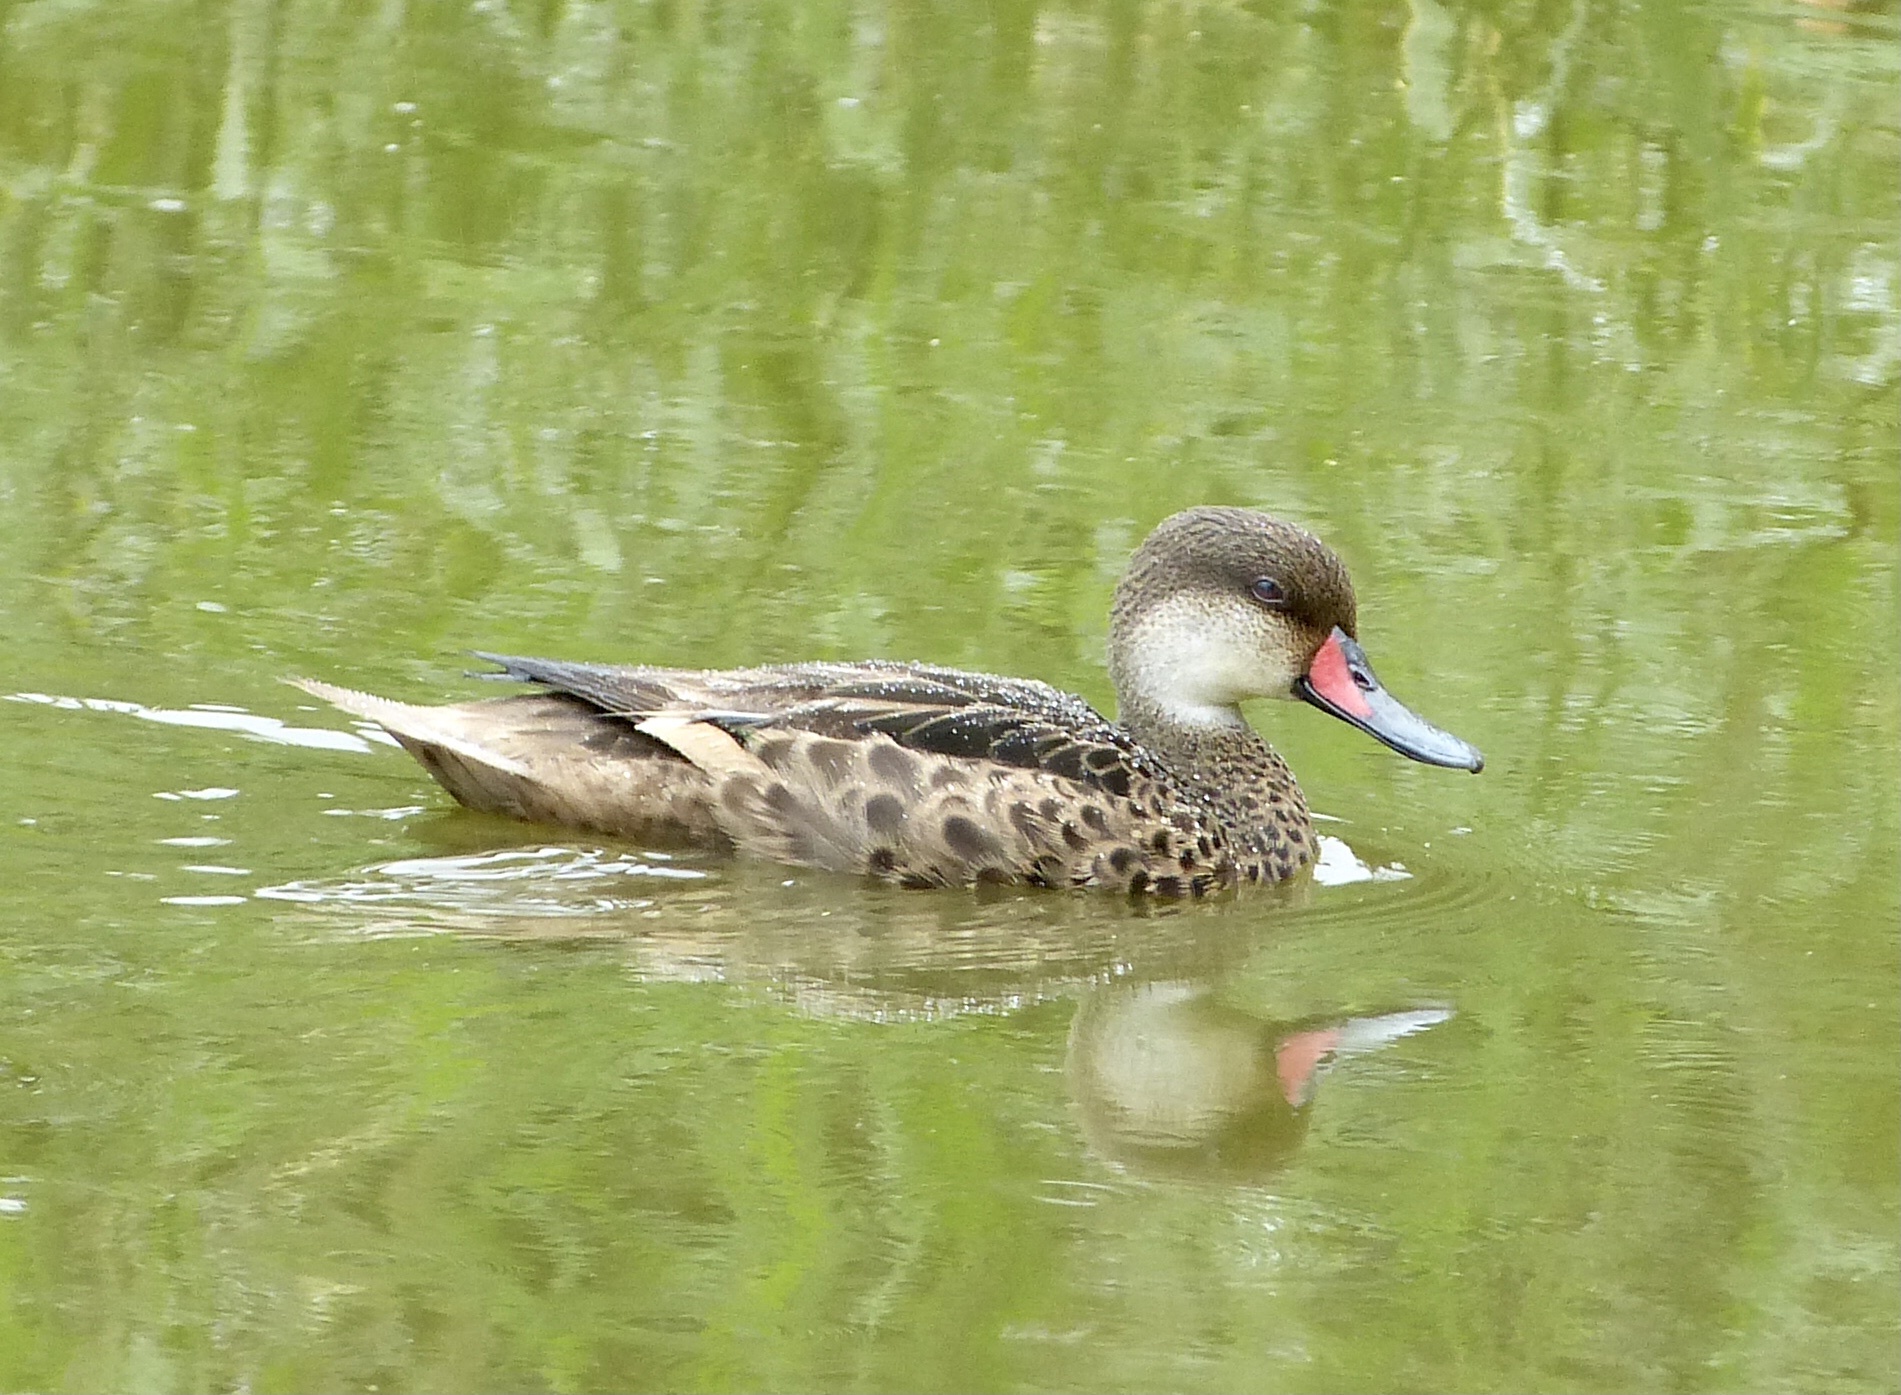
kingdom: Animalia
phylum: Chordata
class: Aves
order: Anseriformes
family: Anatidae
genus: Anas
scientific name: Anas bahamensis
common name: White-cheeked pintail
